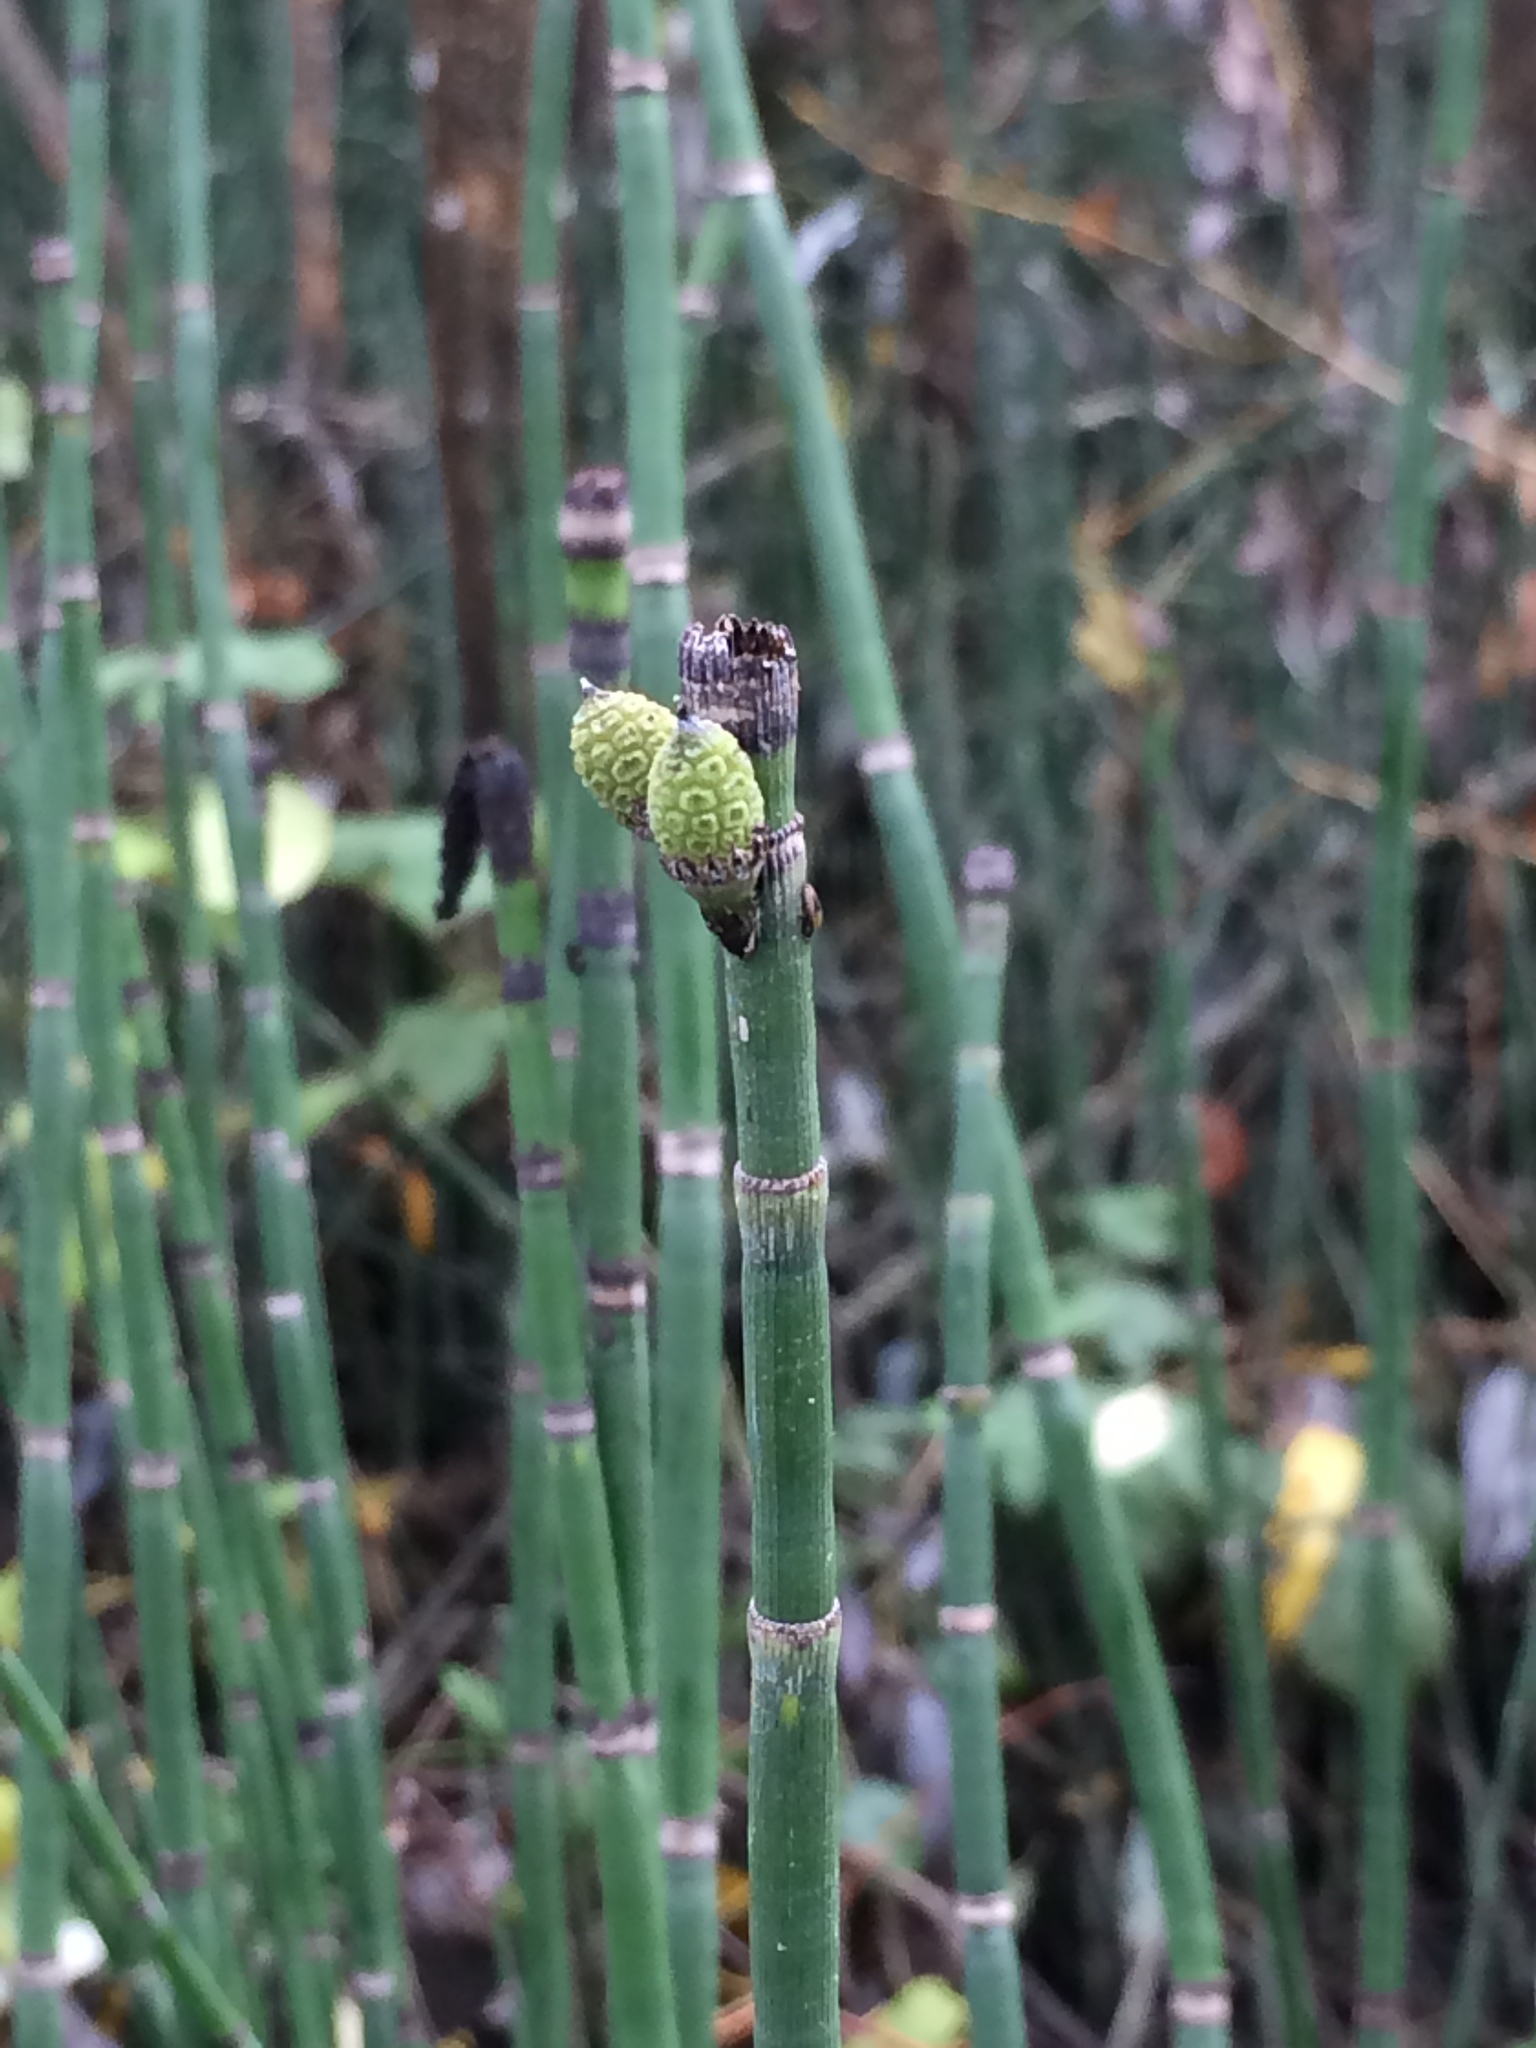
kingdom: Plantae
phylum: Tracheophyta
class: Polypodiopsida
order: Equisetales
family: Equisetaceae
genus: Equisetum
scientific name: Equisetum hyemale
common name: Rough horsetail
